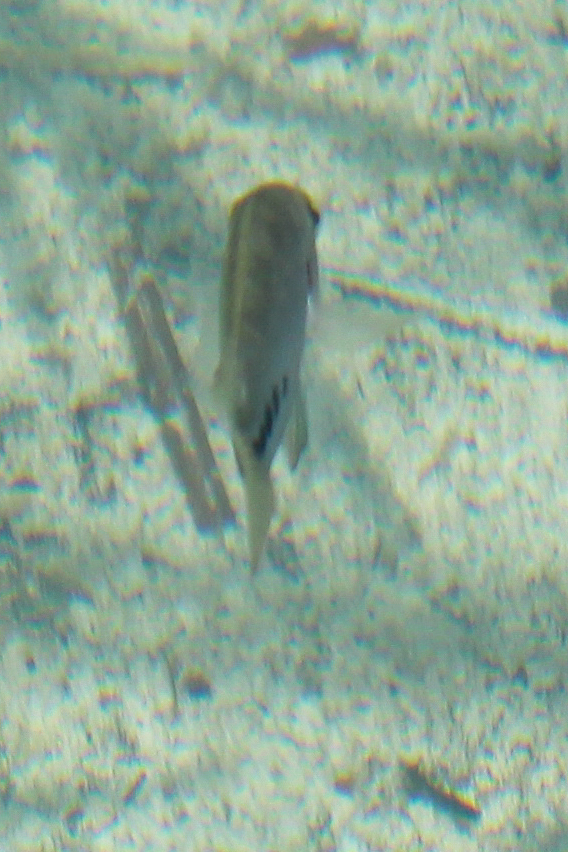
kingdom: Animalia
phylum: Chordata
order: Perciformes
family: Cichlidae
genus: Vieja
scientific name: Vieja melanura
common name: Redhead cichlid
